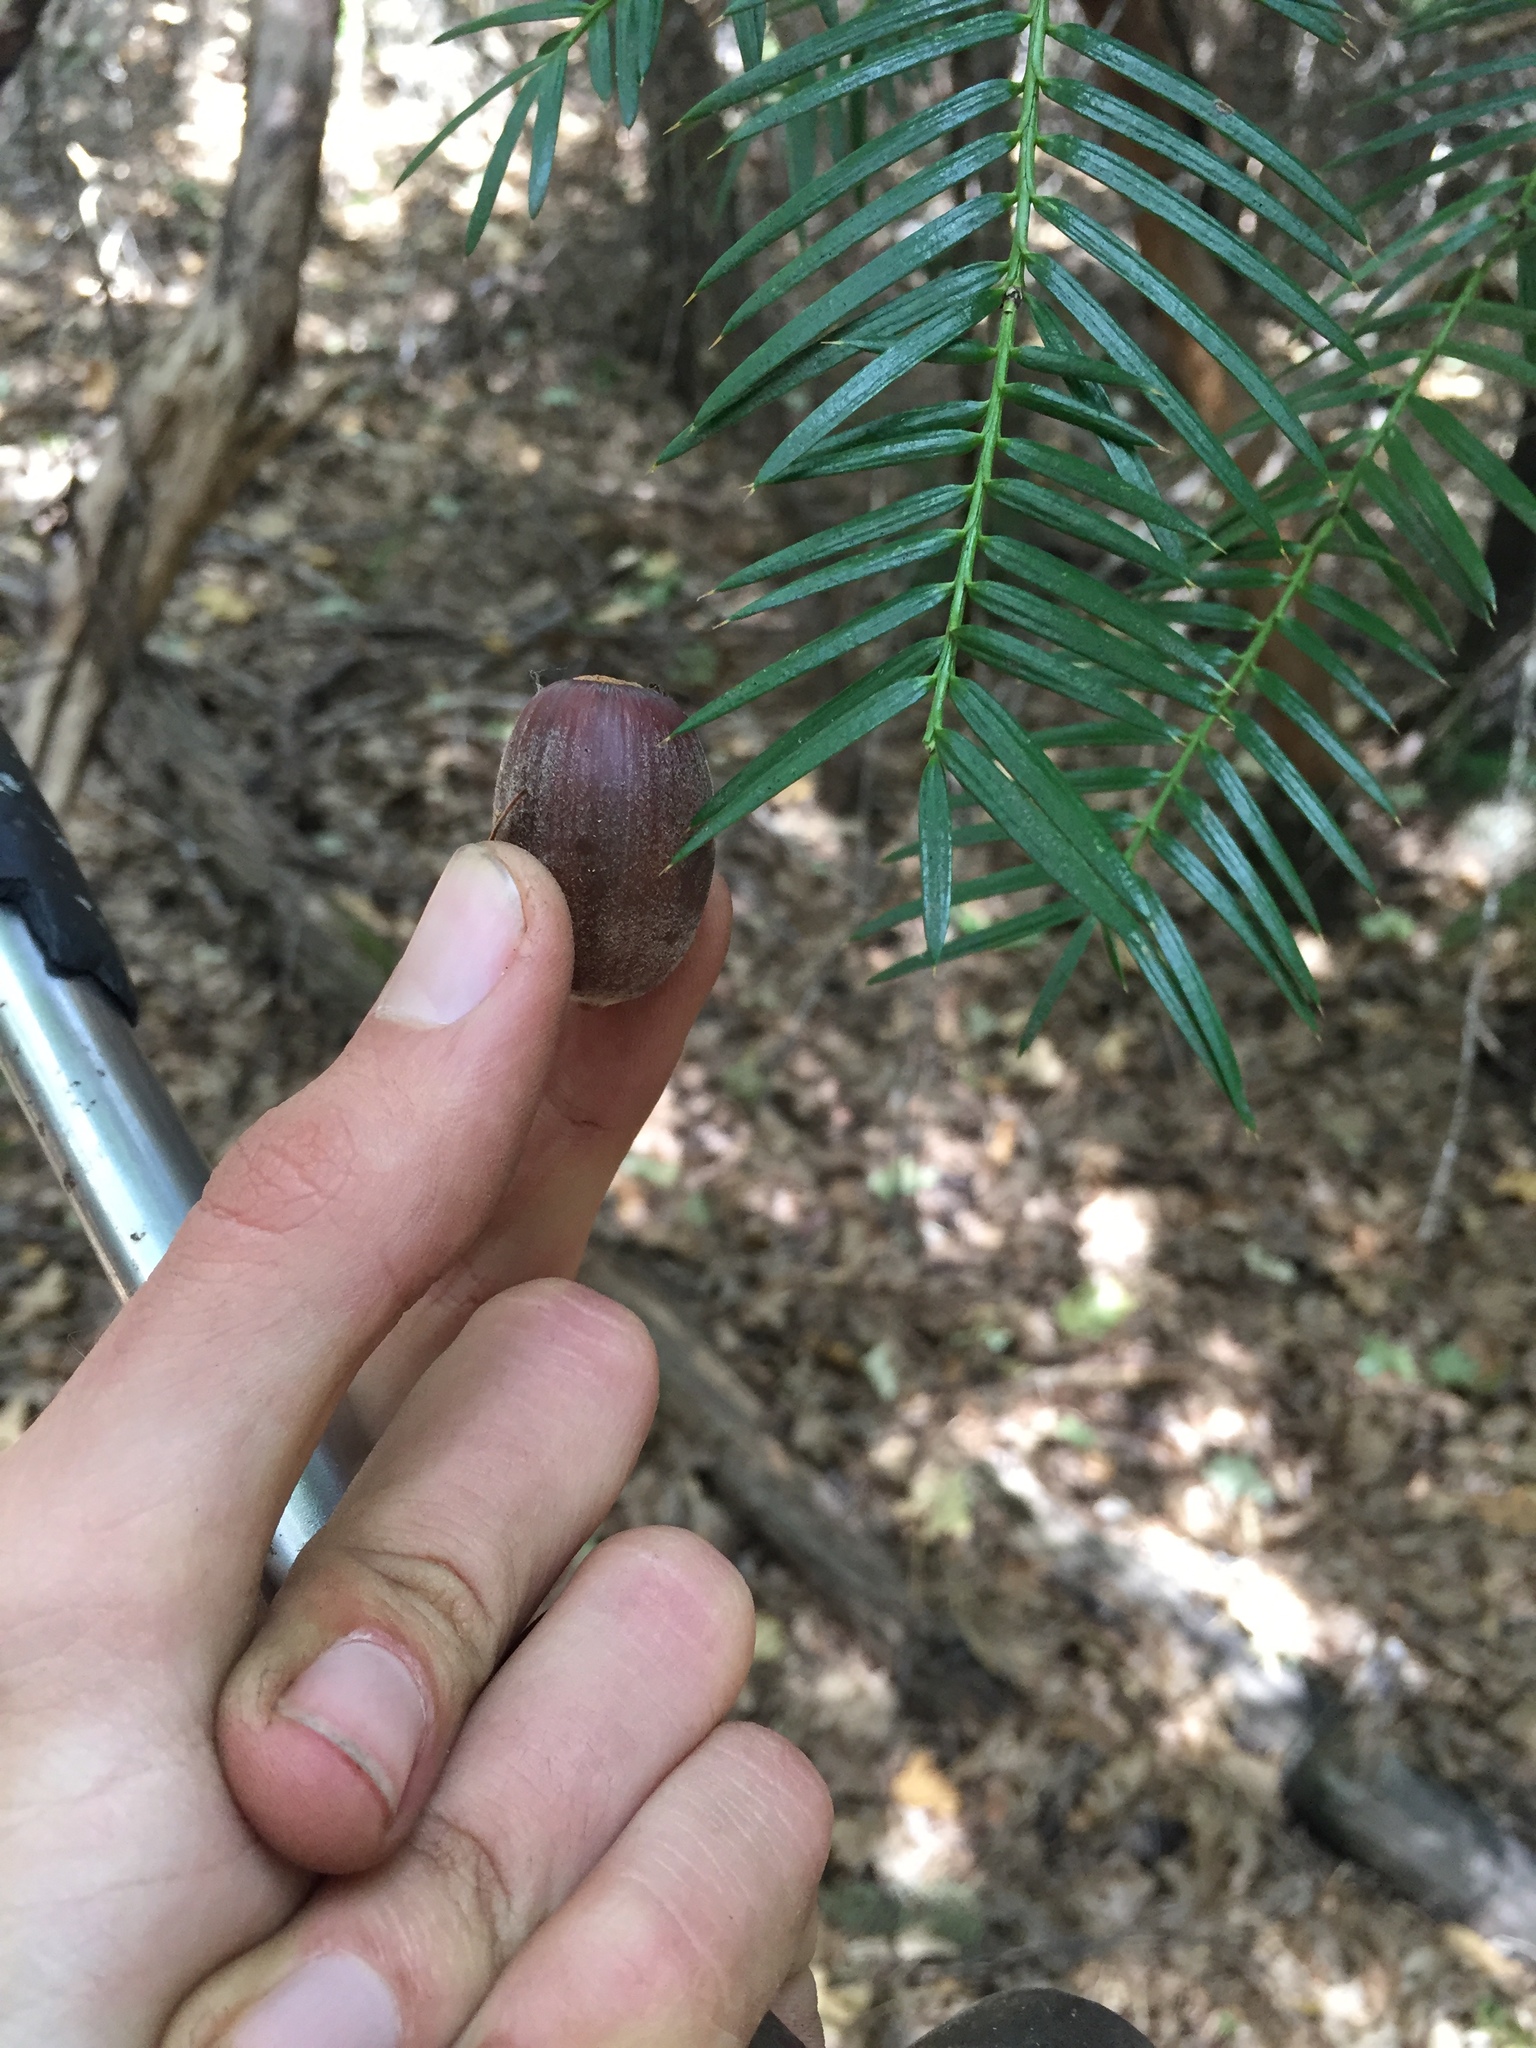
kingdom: Plantae
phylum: Tracheophyta
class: Pinopsida
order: Pinales
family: Taxaceae
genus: Torreya
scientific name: Torreya californica
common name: California torreya
